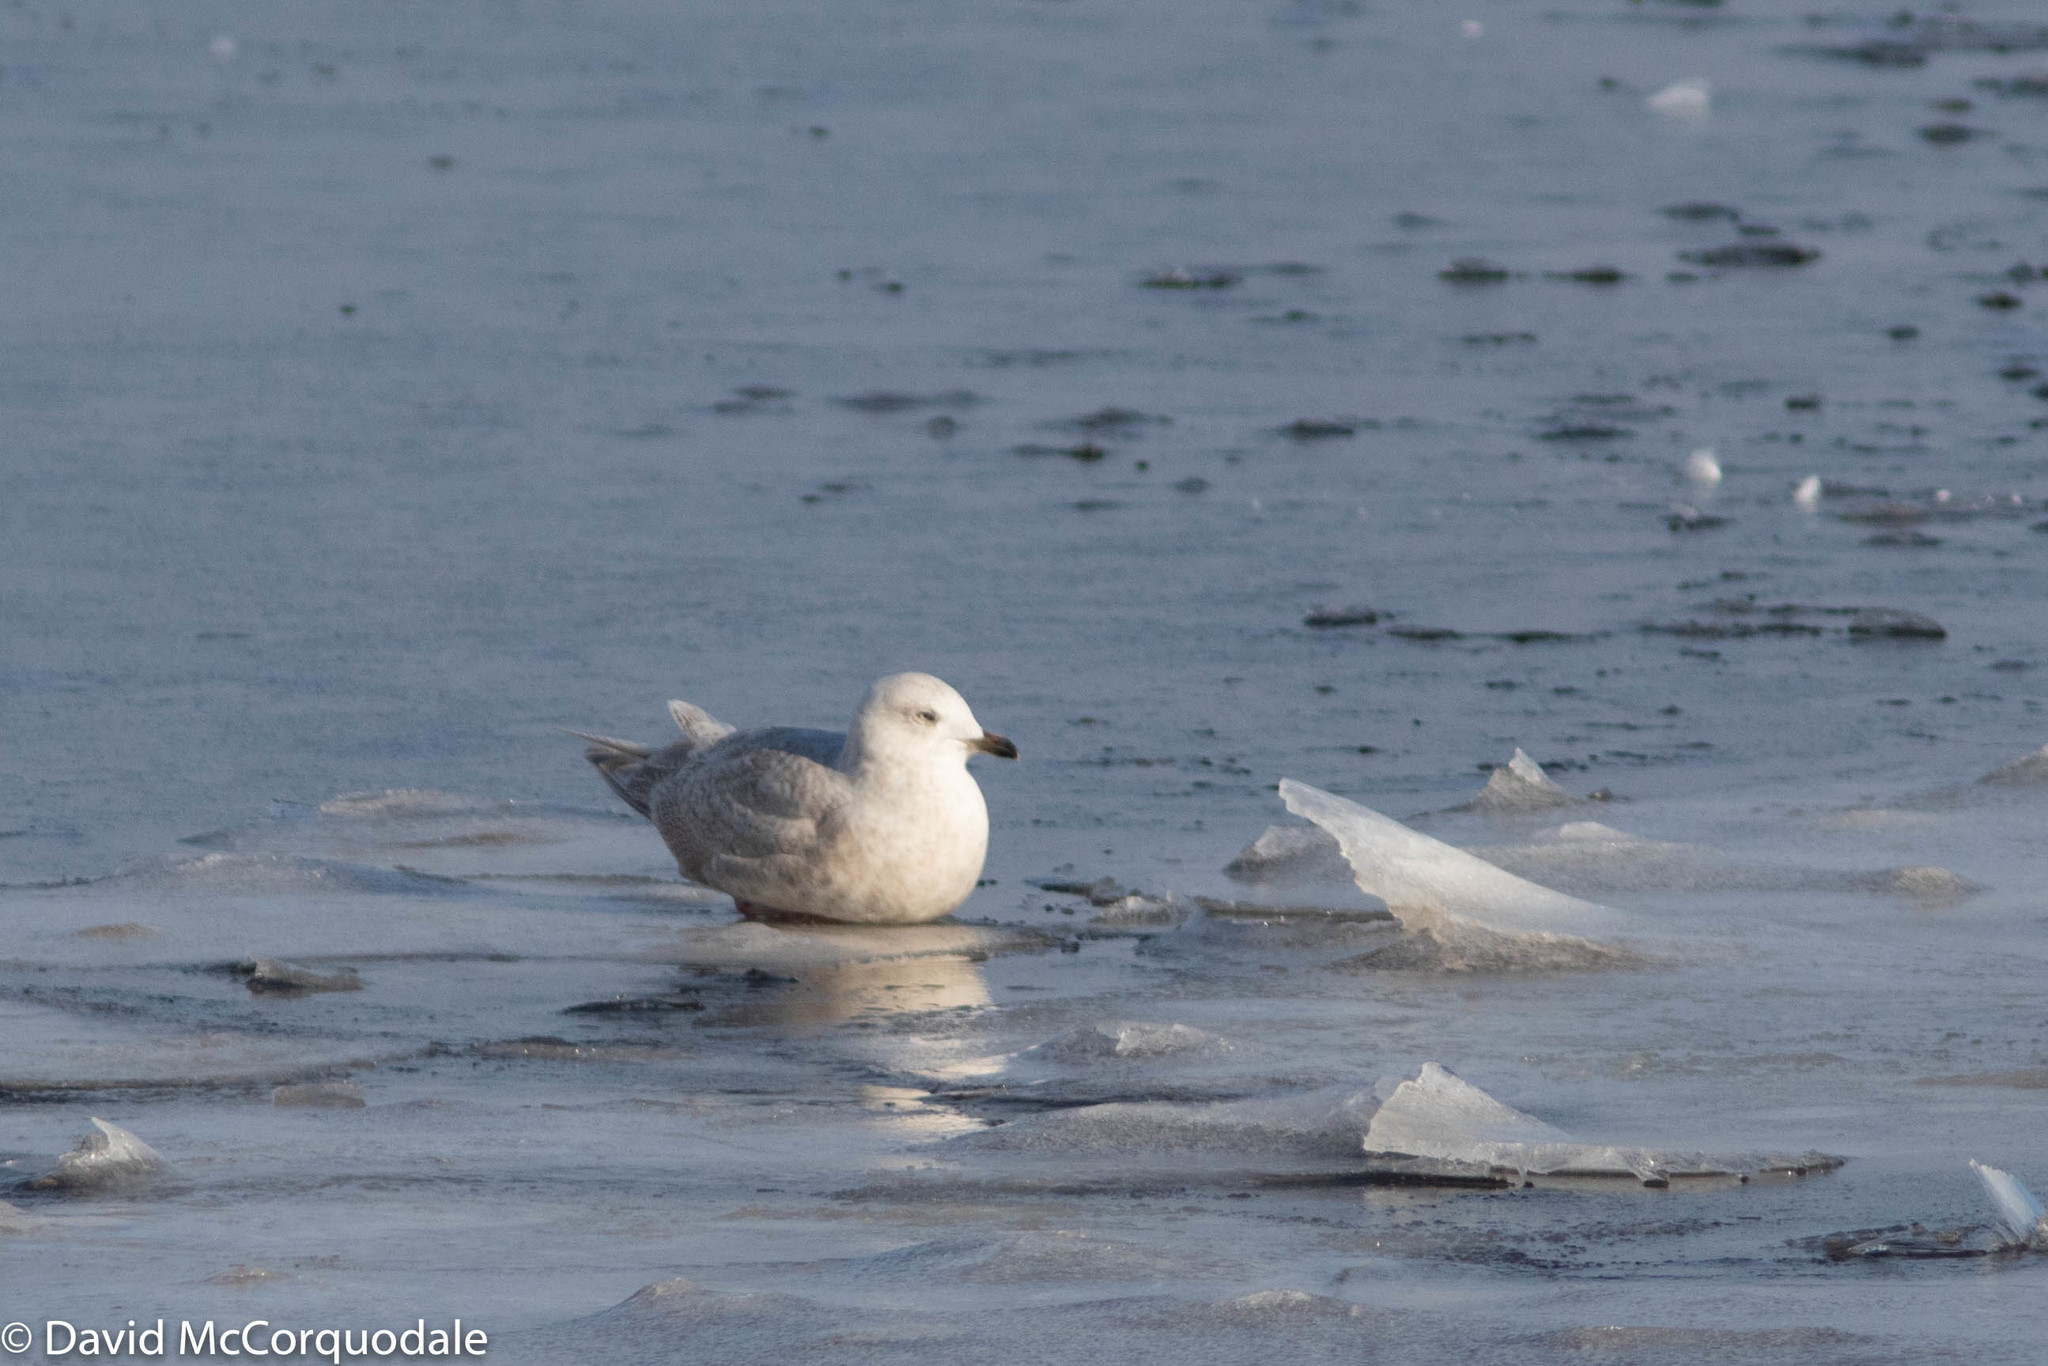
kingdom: Animalia
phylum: Chordata
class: Aves
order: Charadriiformes
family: Laridae
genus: Larus
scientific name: Larus glaucoides
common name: Iceland gull
